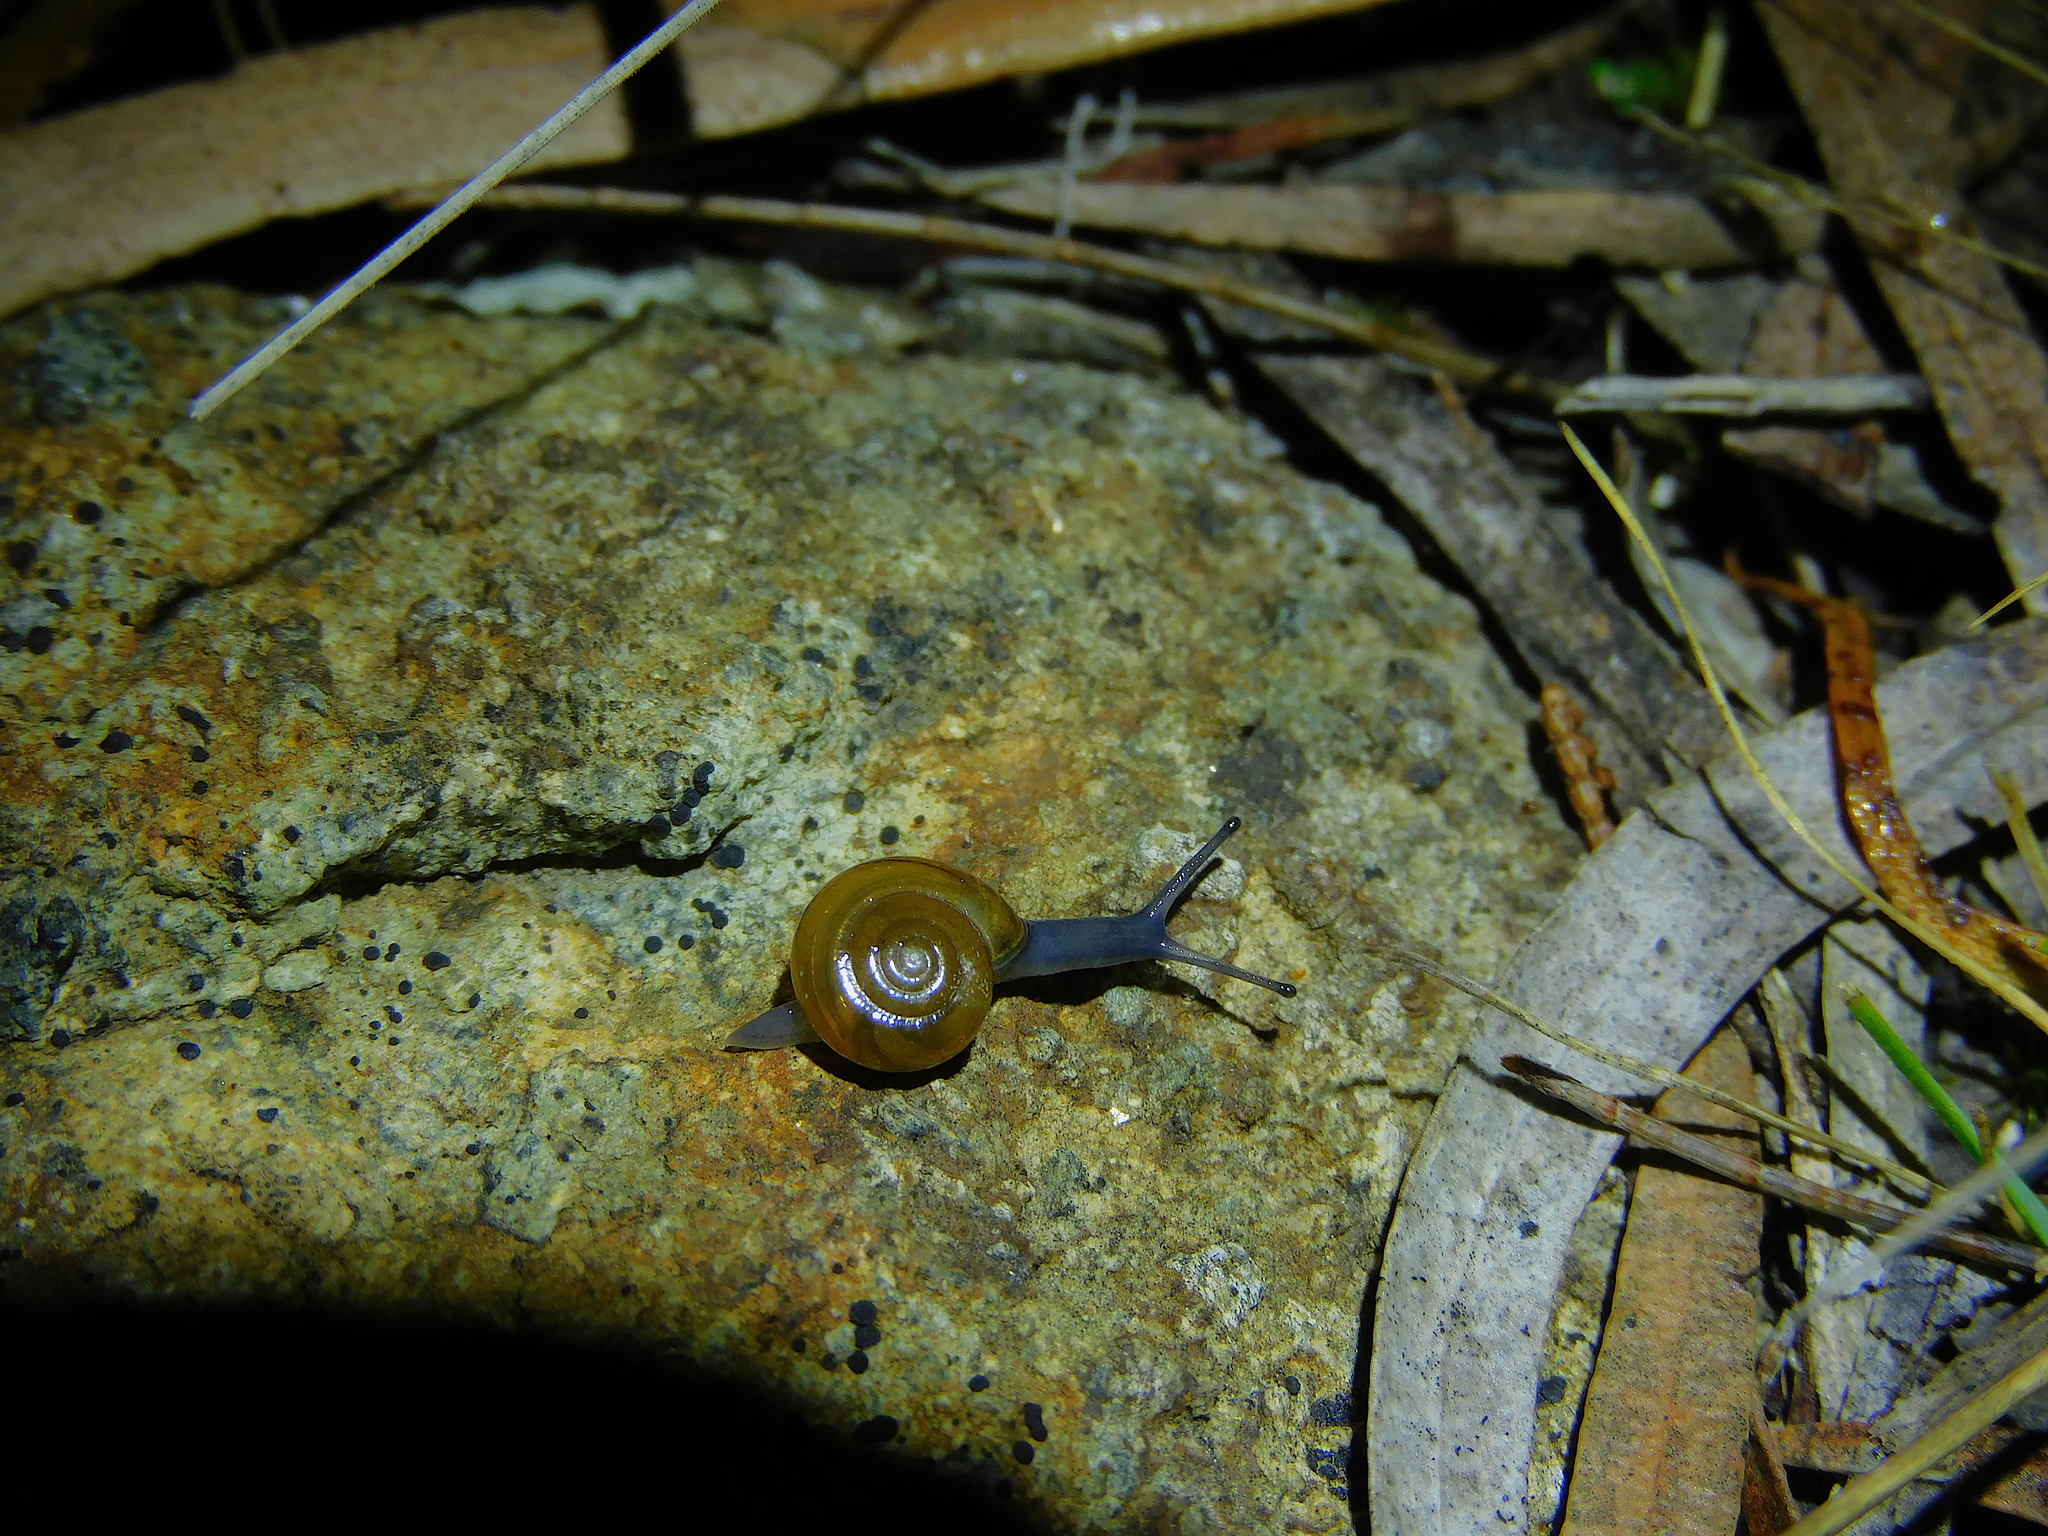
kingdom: Animalia
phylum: Mollusca
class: Gastropoda
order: Stylommatophora
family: Oxychilidae
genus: Oxychilus
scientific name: Oxychilus alliarius
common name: Garlic glass-snail
